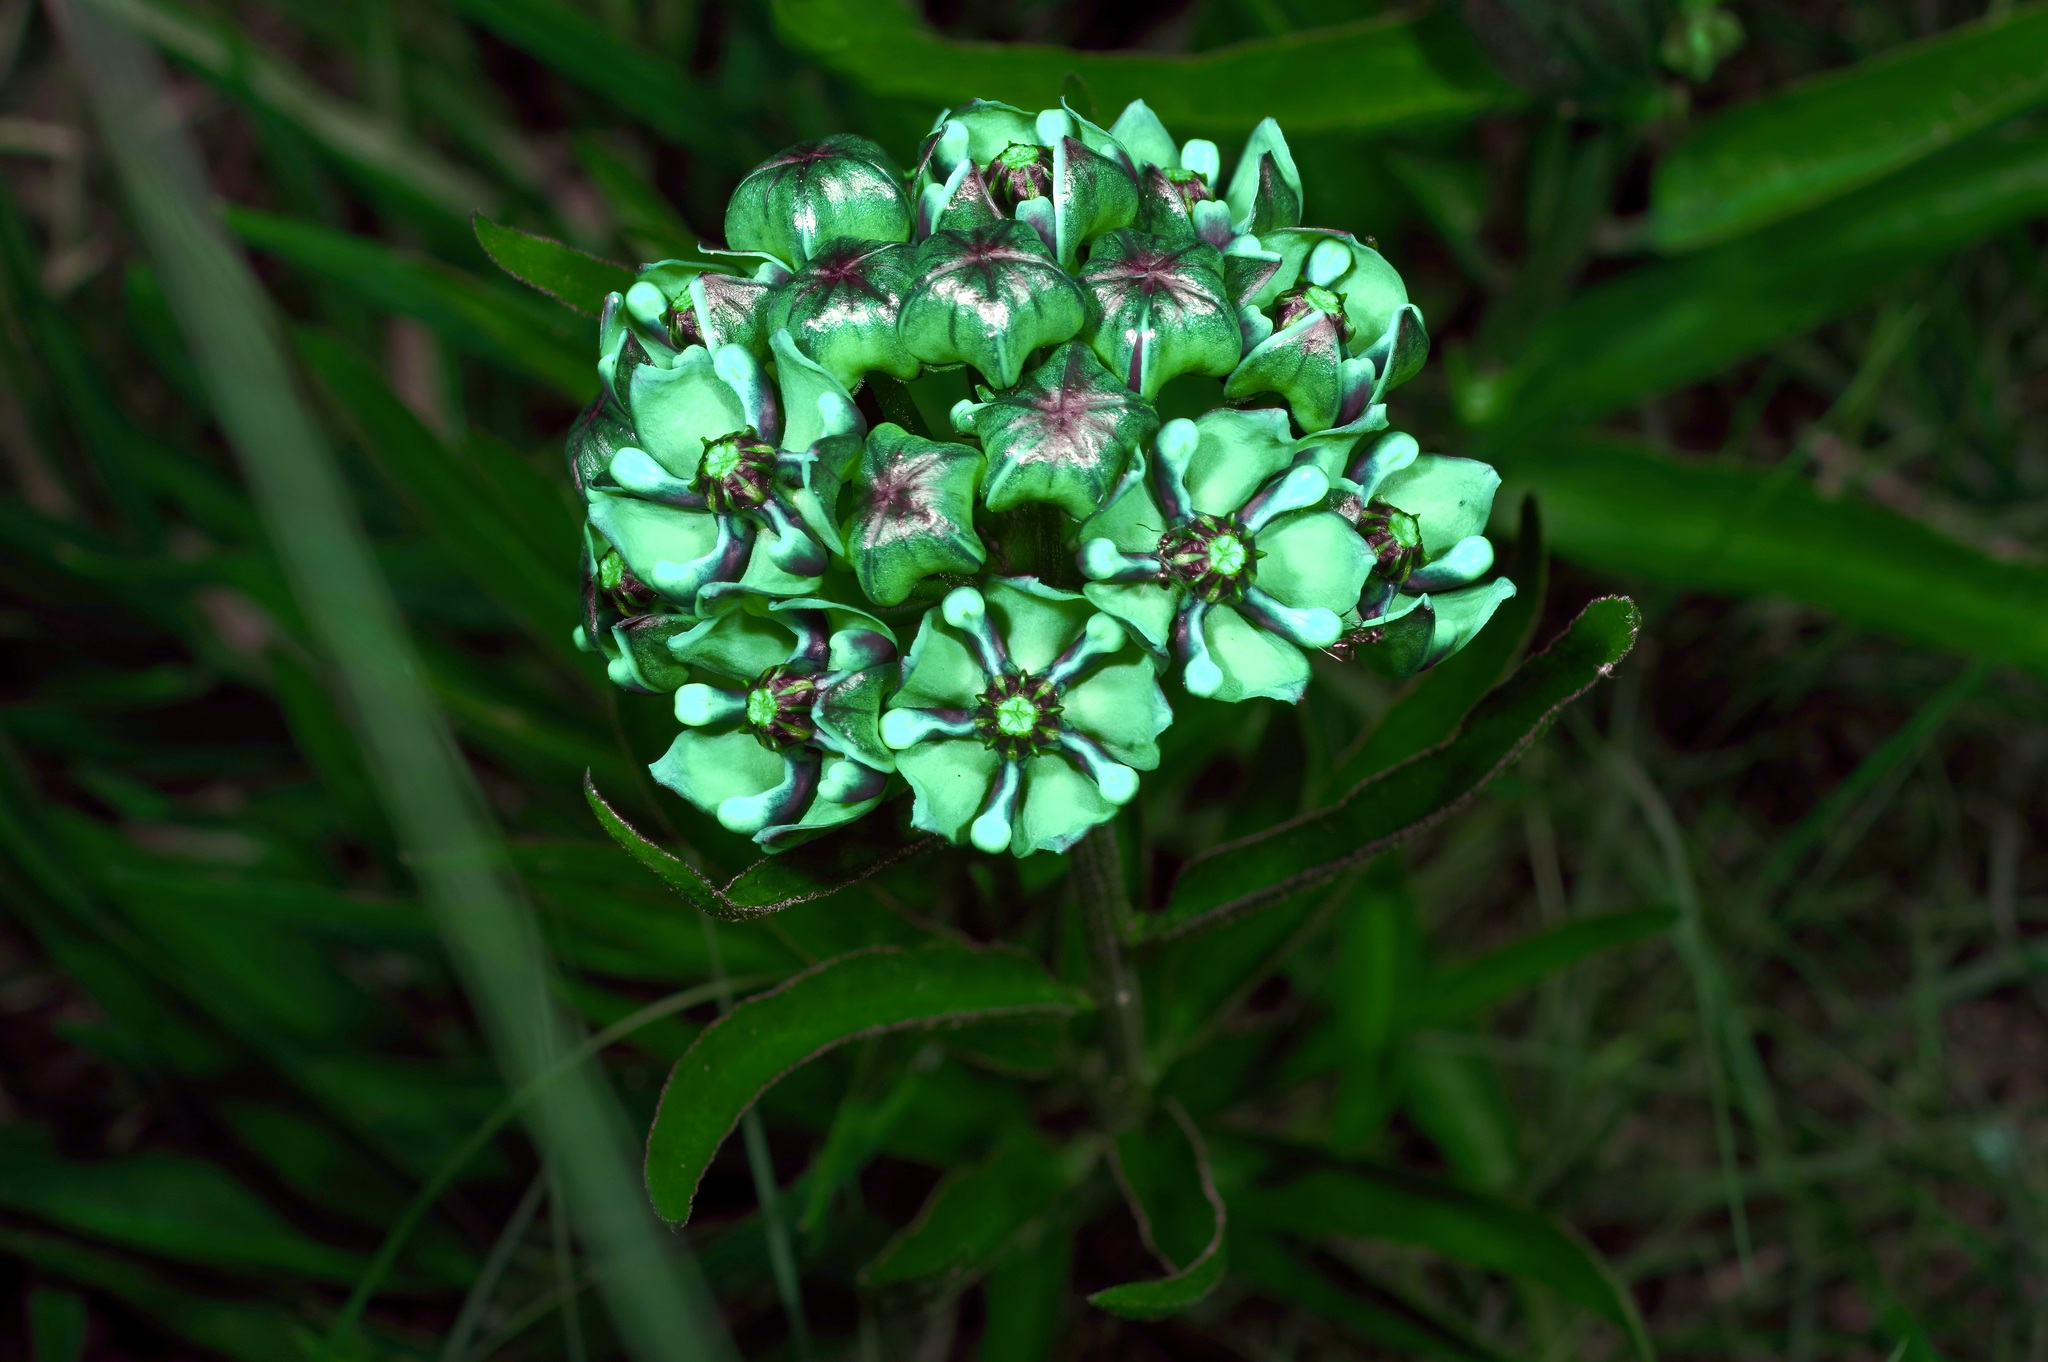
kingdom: Plantae
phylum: Tracheophyta
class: Magnoliopsida
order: Gentianales
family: Apocynaceae
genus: Asclepias
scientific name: Asclepias asperula
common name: Antelope horns
